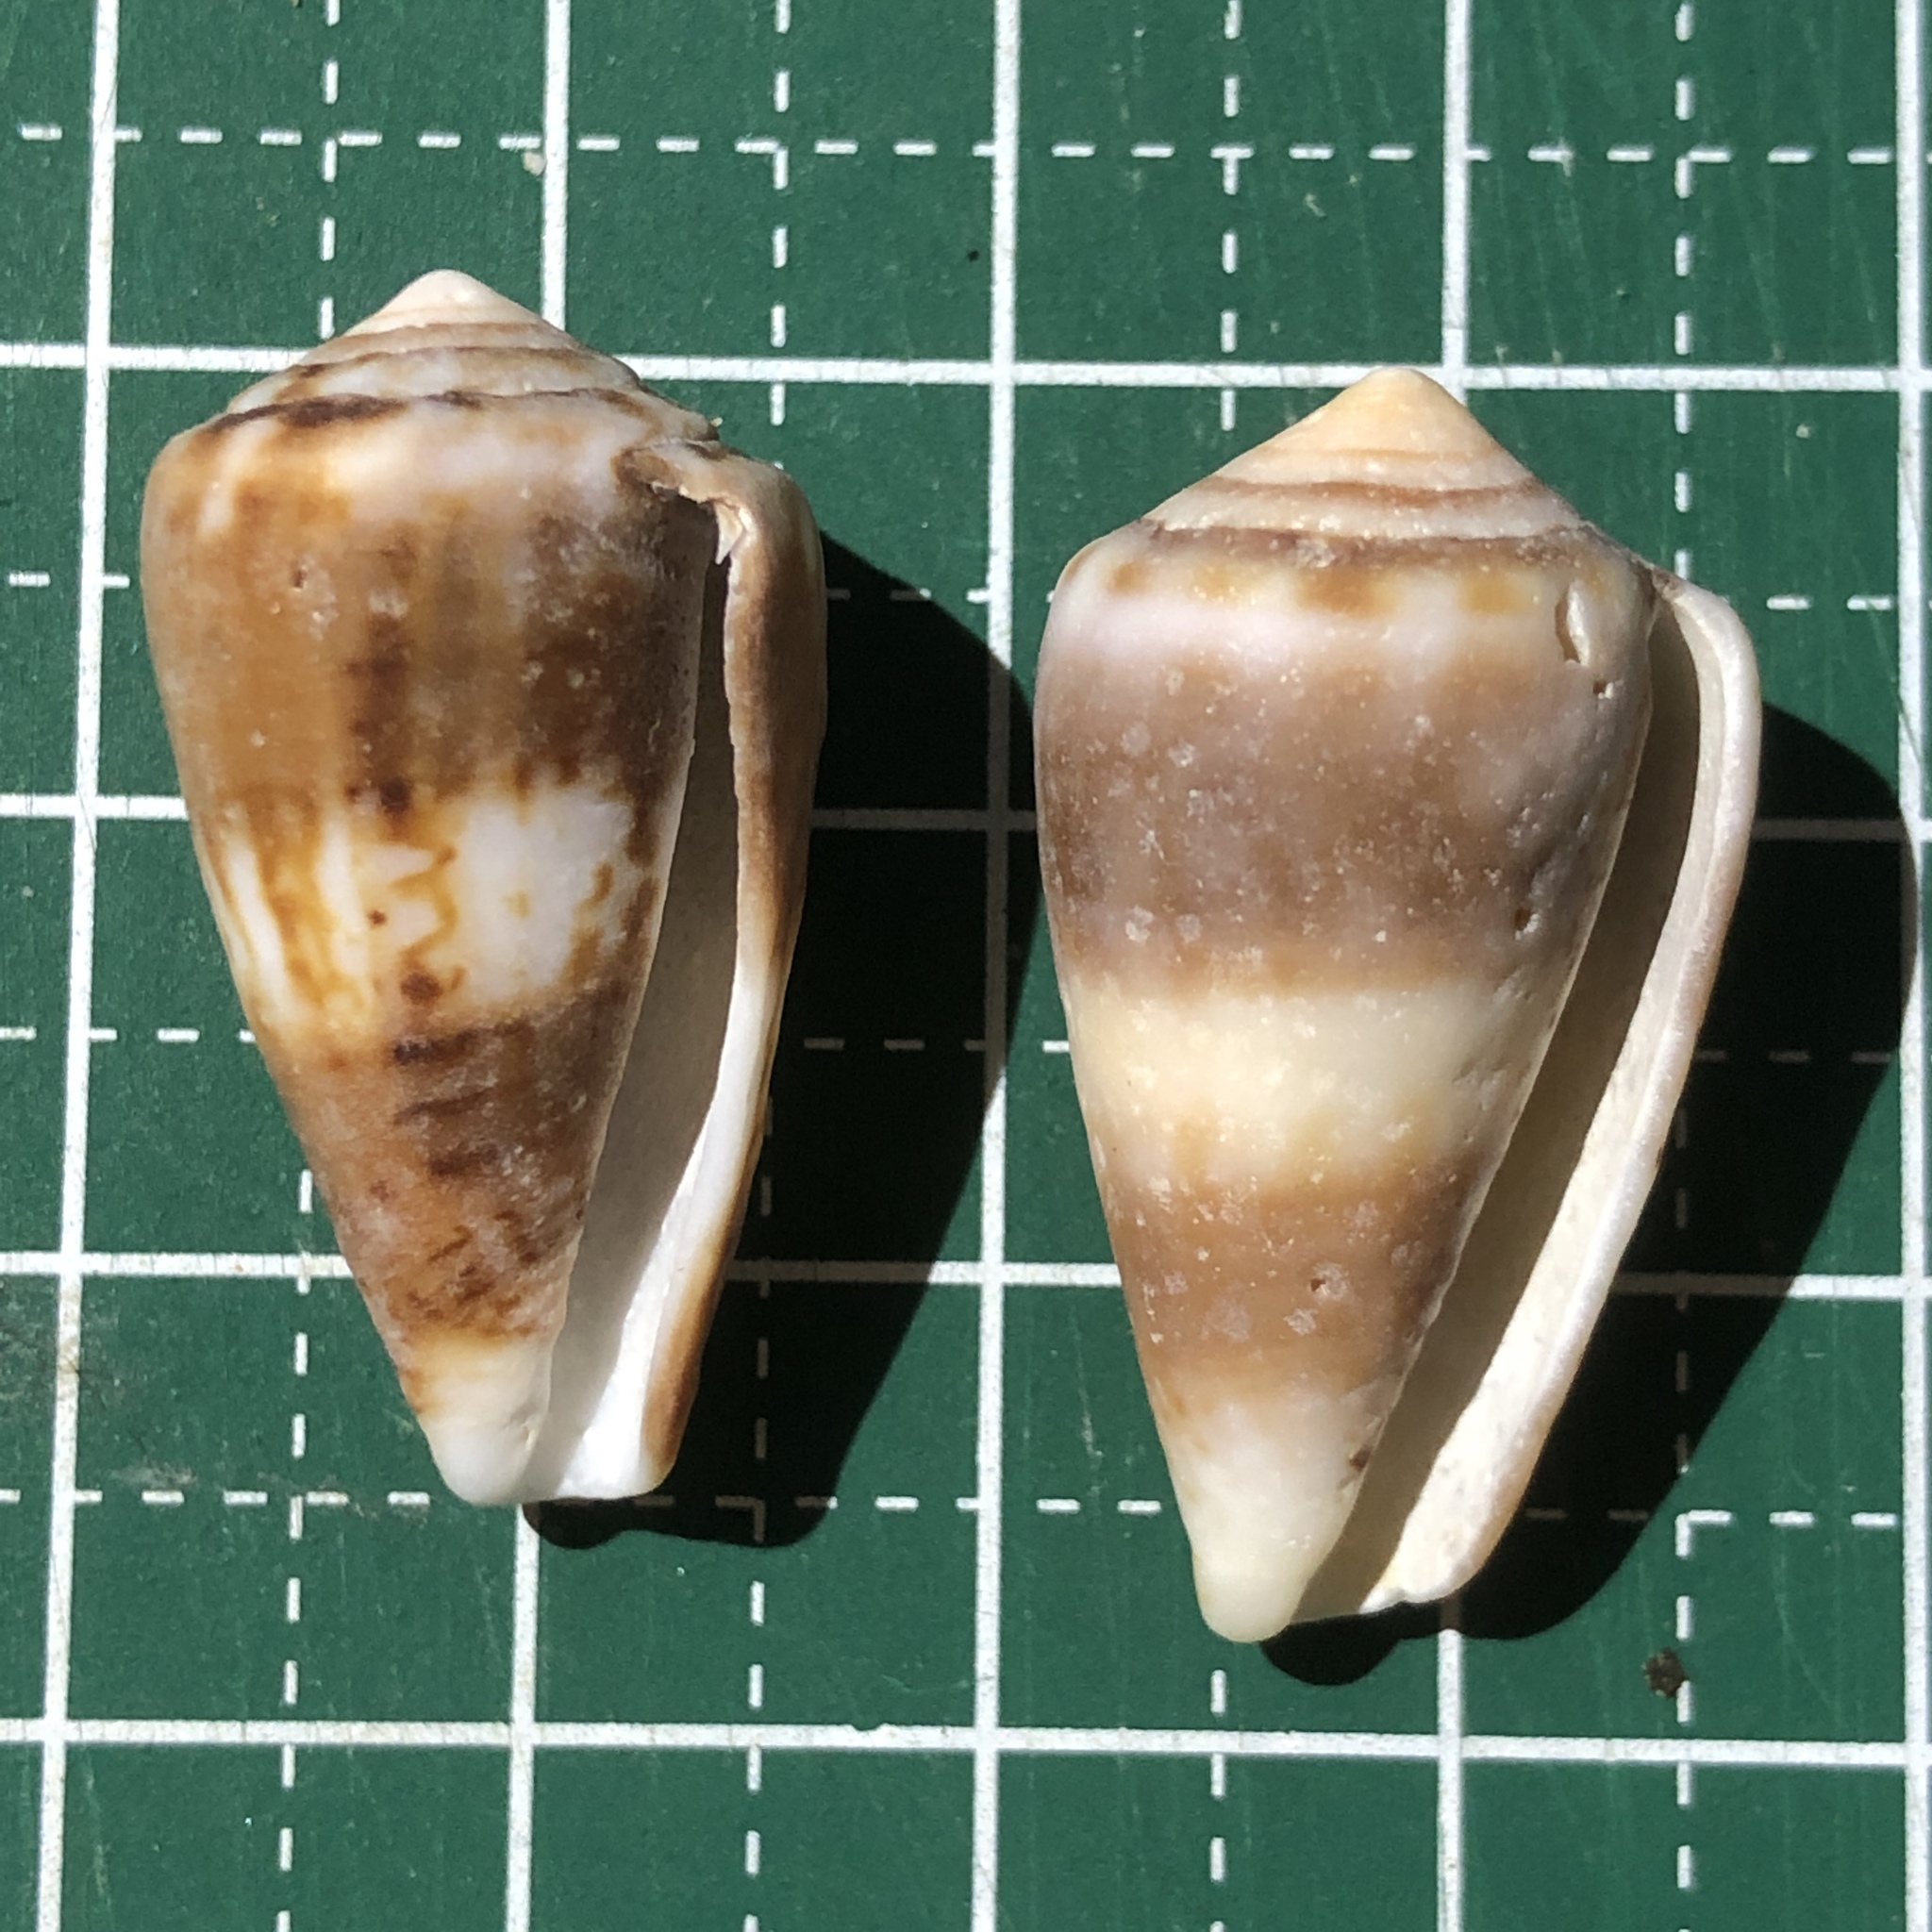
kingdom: Animalia
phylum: Mollusca
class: Gastropoda
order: Neogastropoda
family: Conidae
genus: Conus
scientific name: Conus boeticus
